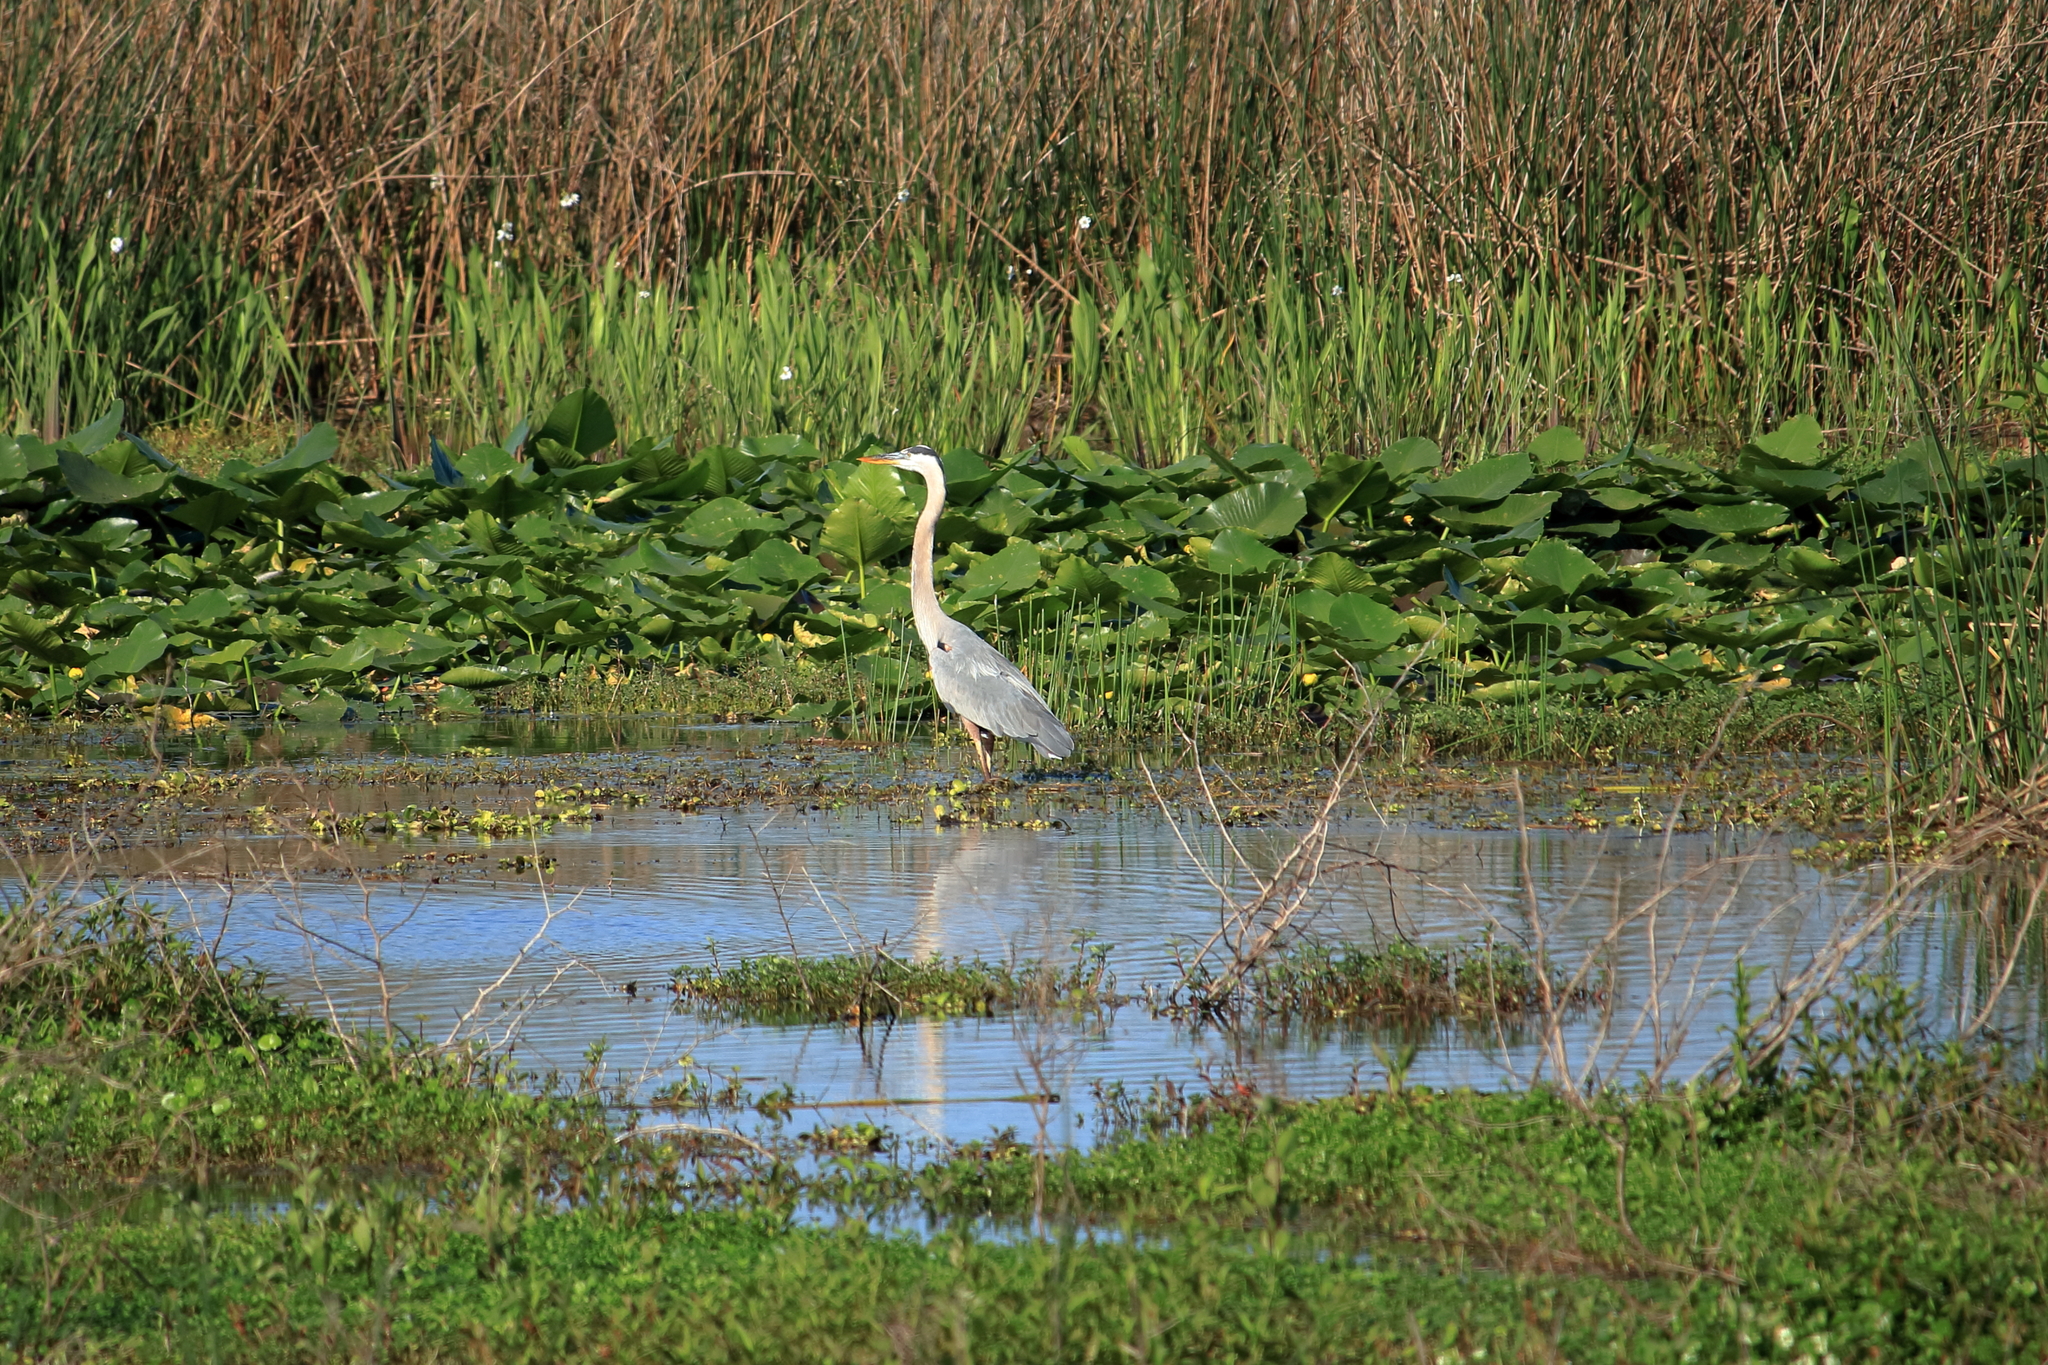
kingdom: Animalia
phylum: Chordata
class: Aves
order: Pelecaniformes
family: Ardeidae
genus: Ardea
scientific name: Ardea herodias
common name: Great blue heron
